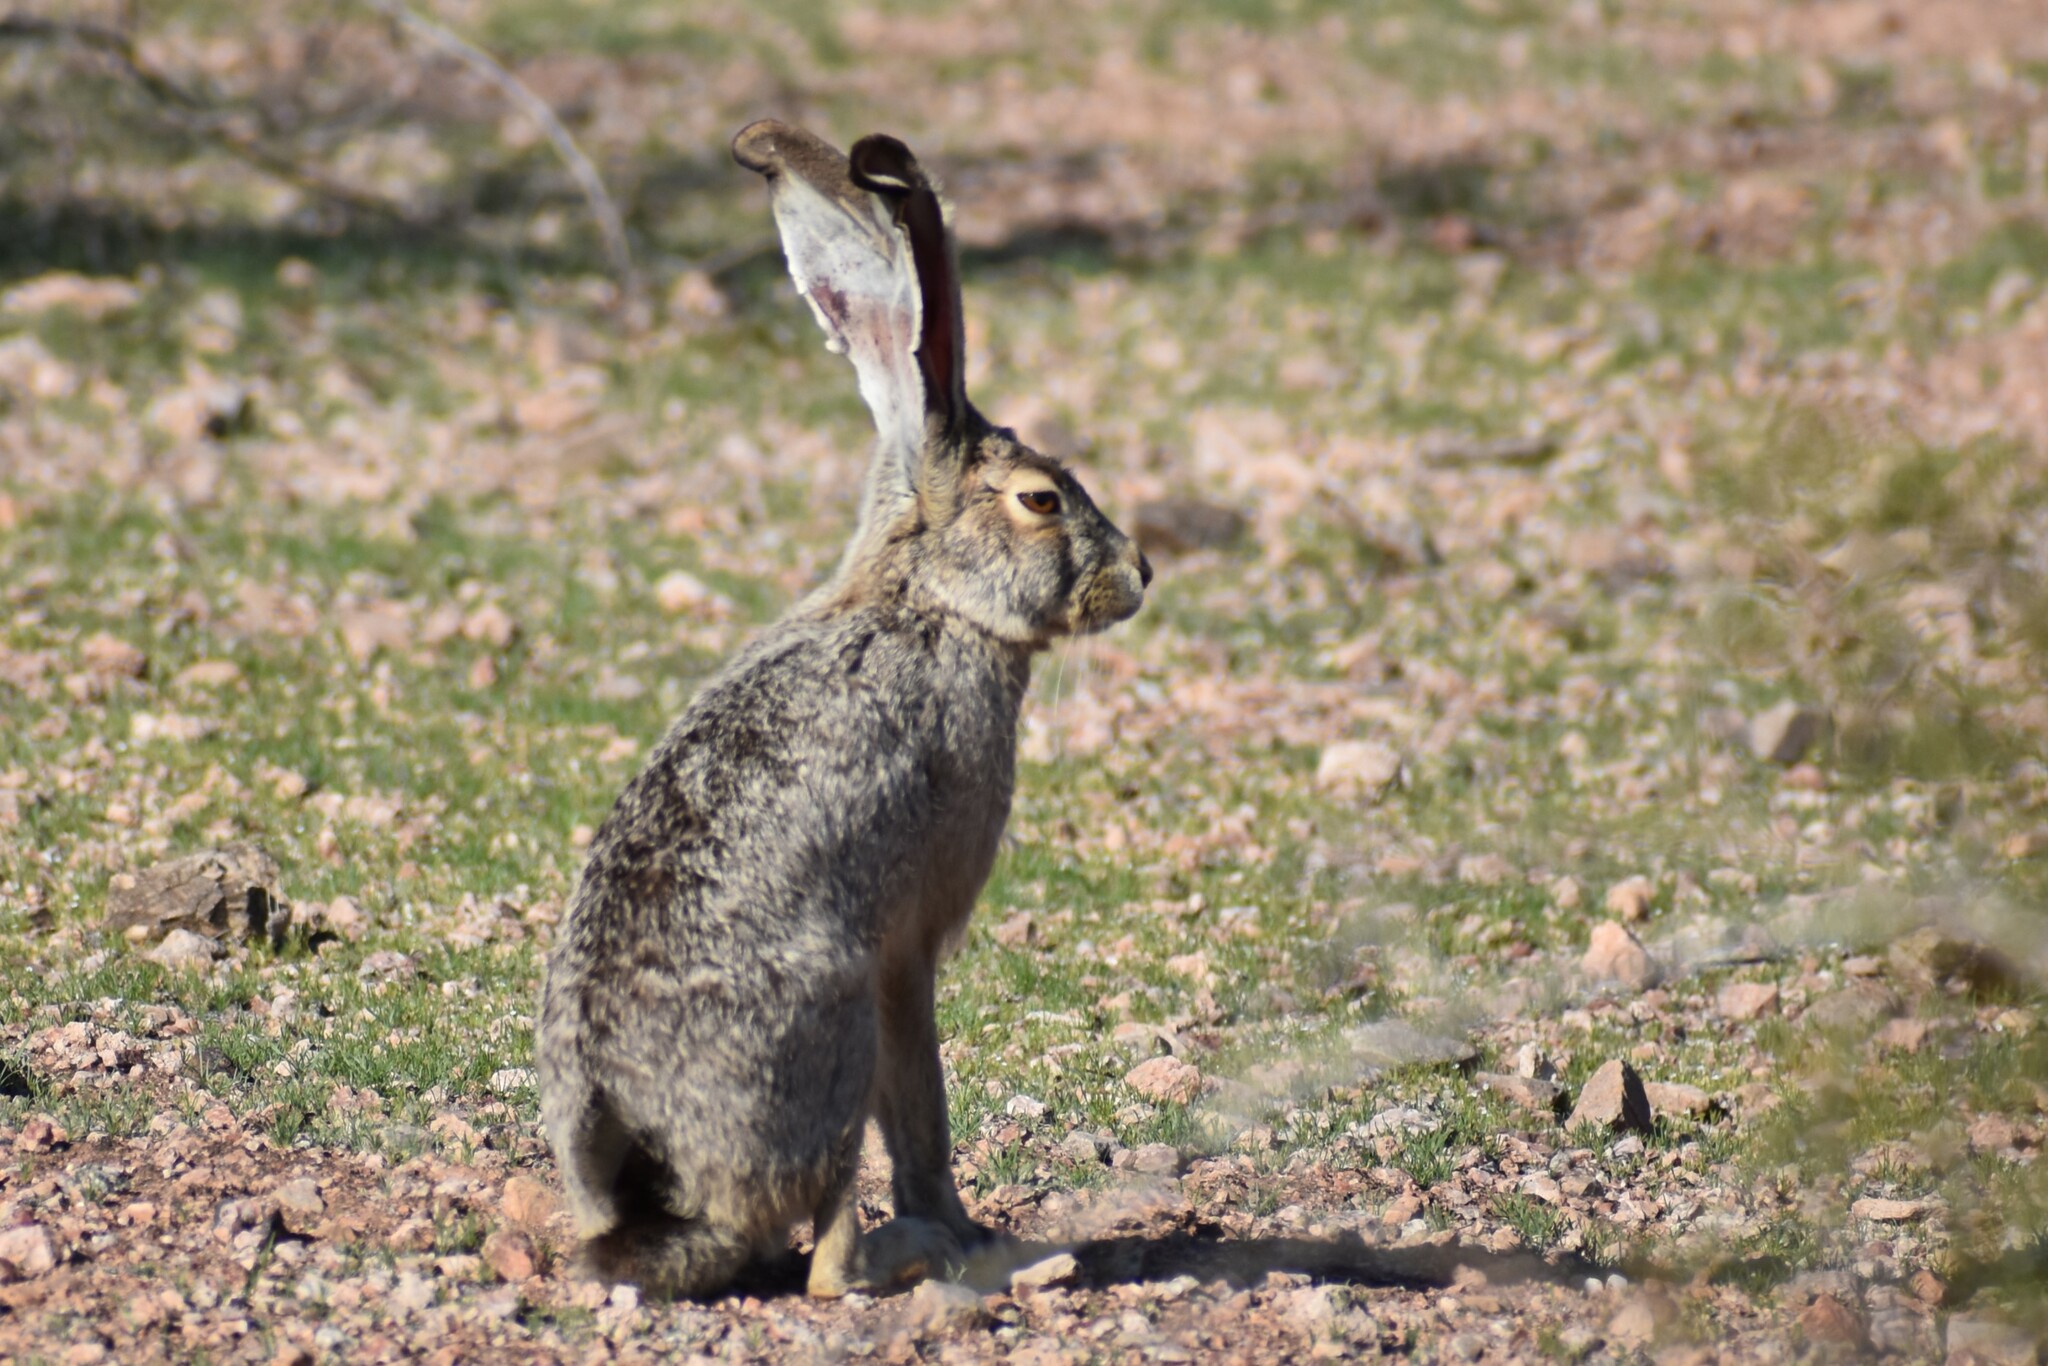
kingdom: Animalia
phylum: Chordata
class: Mammalia
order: Lagomorpha
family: Leporidae
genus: Lepus
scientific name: Lepus californicus
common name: Black-tailed jackrabbit
